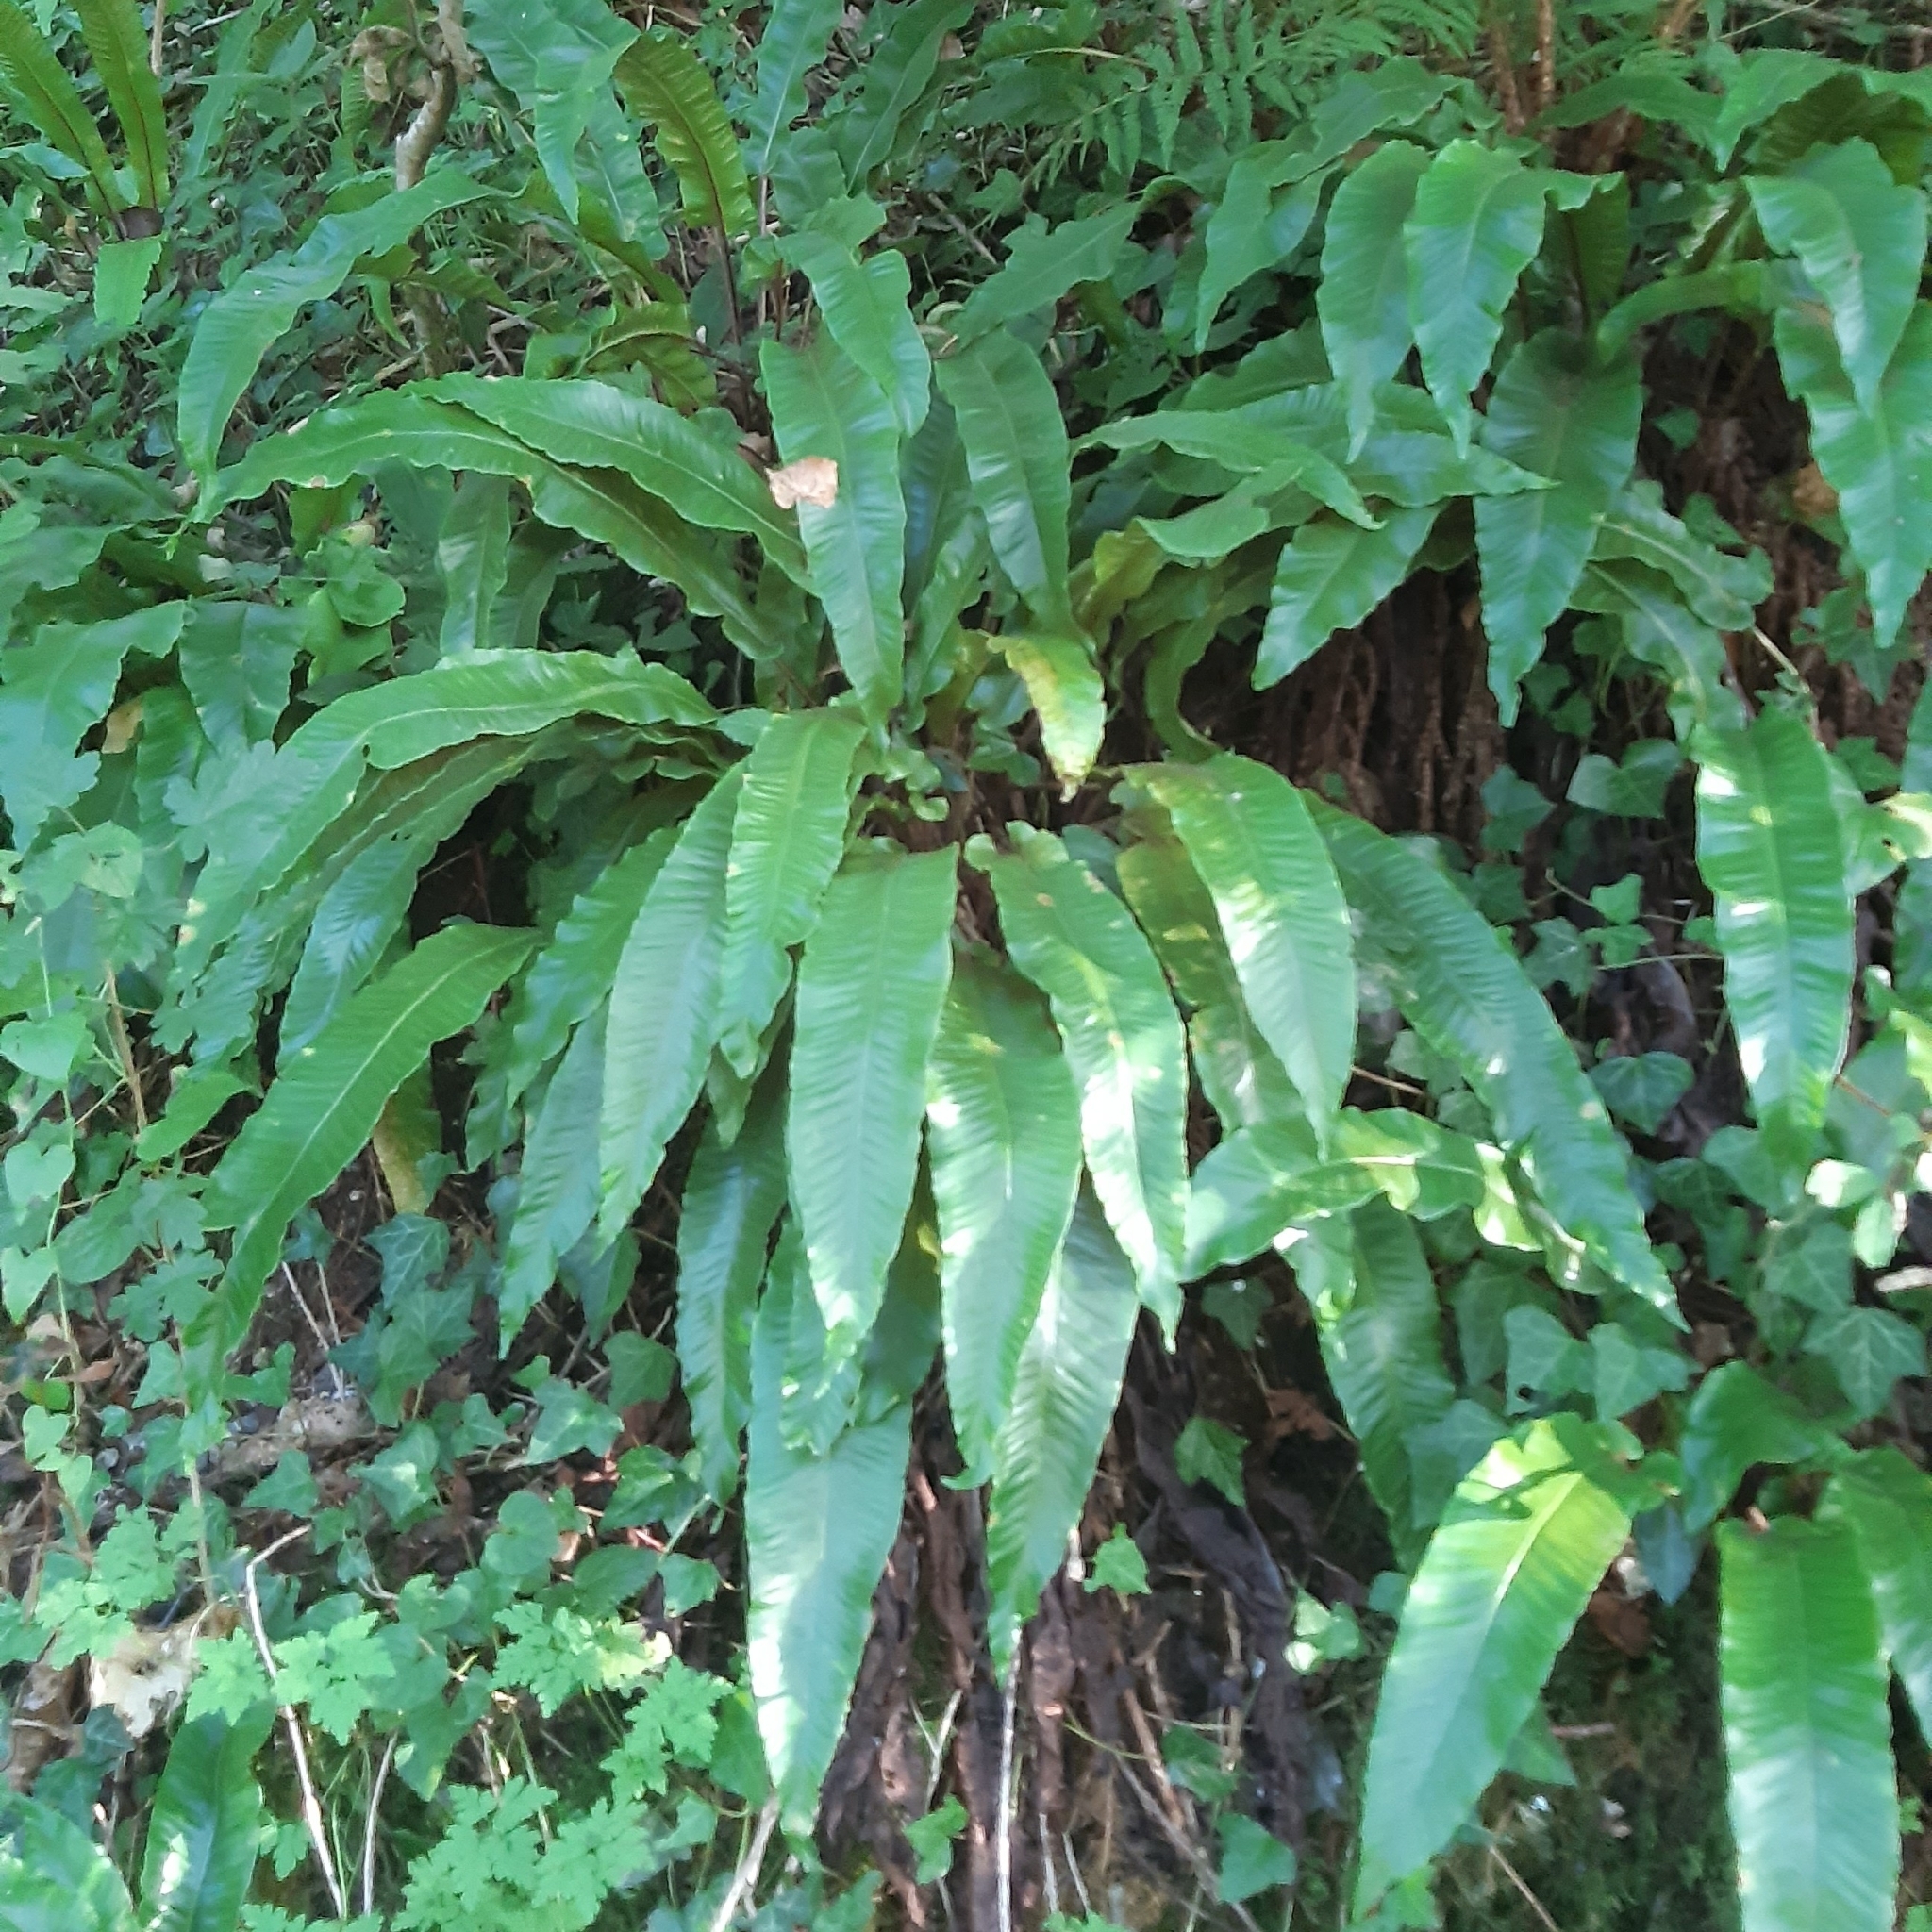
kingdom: Plantae
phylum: Tracheophyta
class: Polypodiopsida
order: Polypodiales
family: Aspleniaceae
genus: Asplenium
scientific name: Asplenium scolopendrium
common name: Hart's-tongue fern
